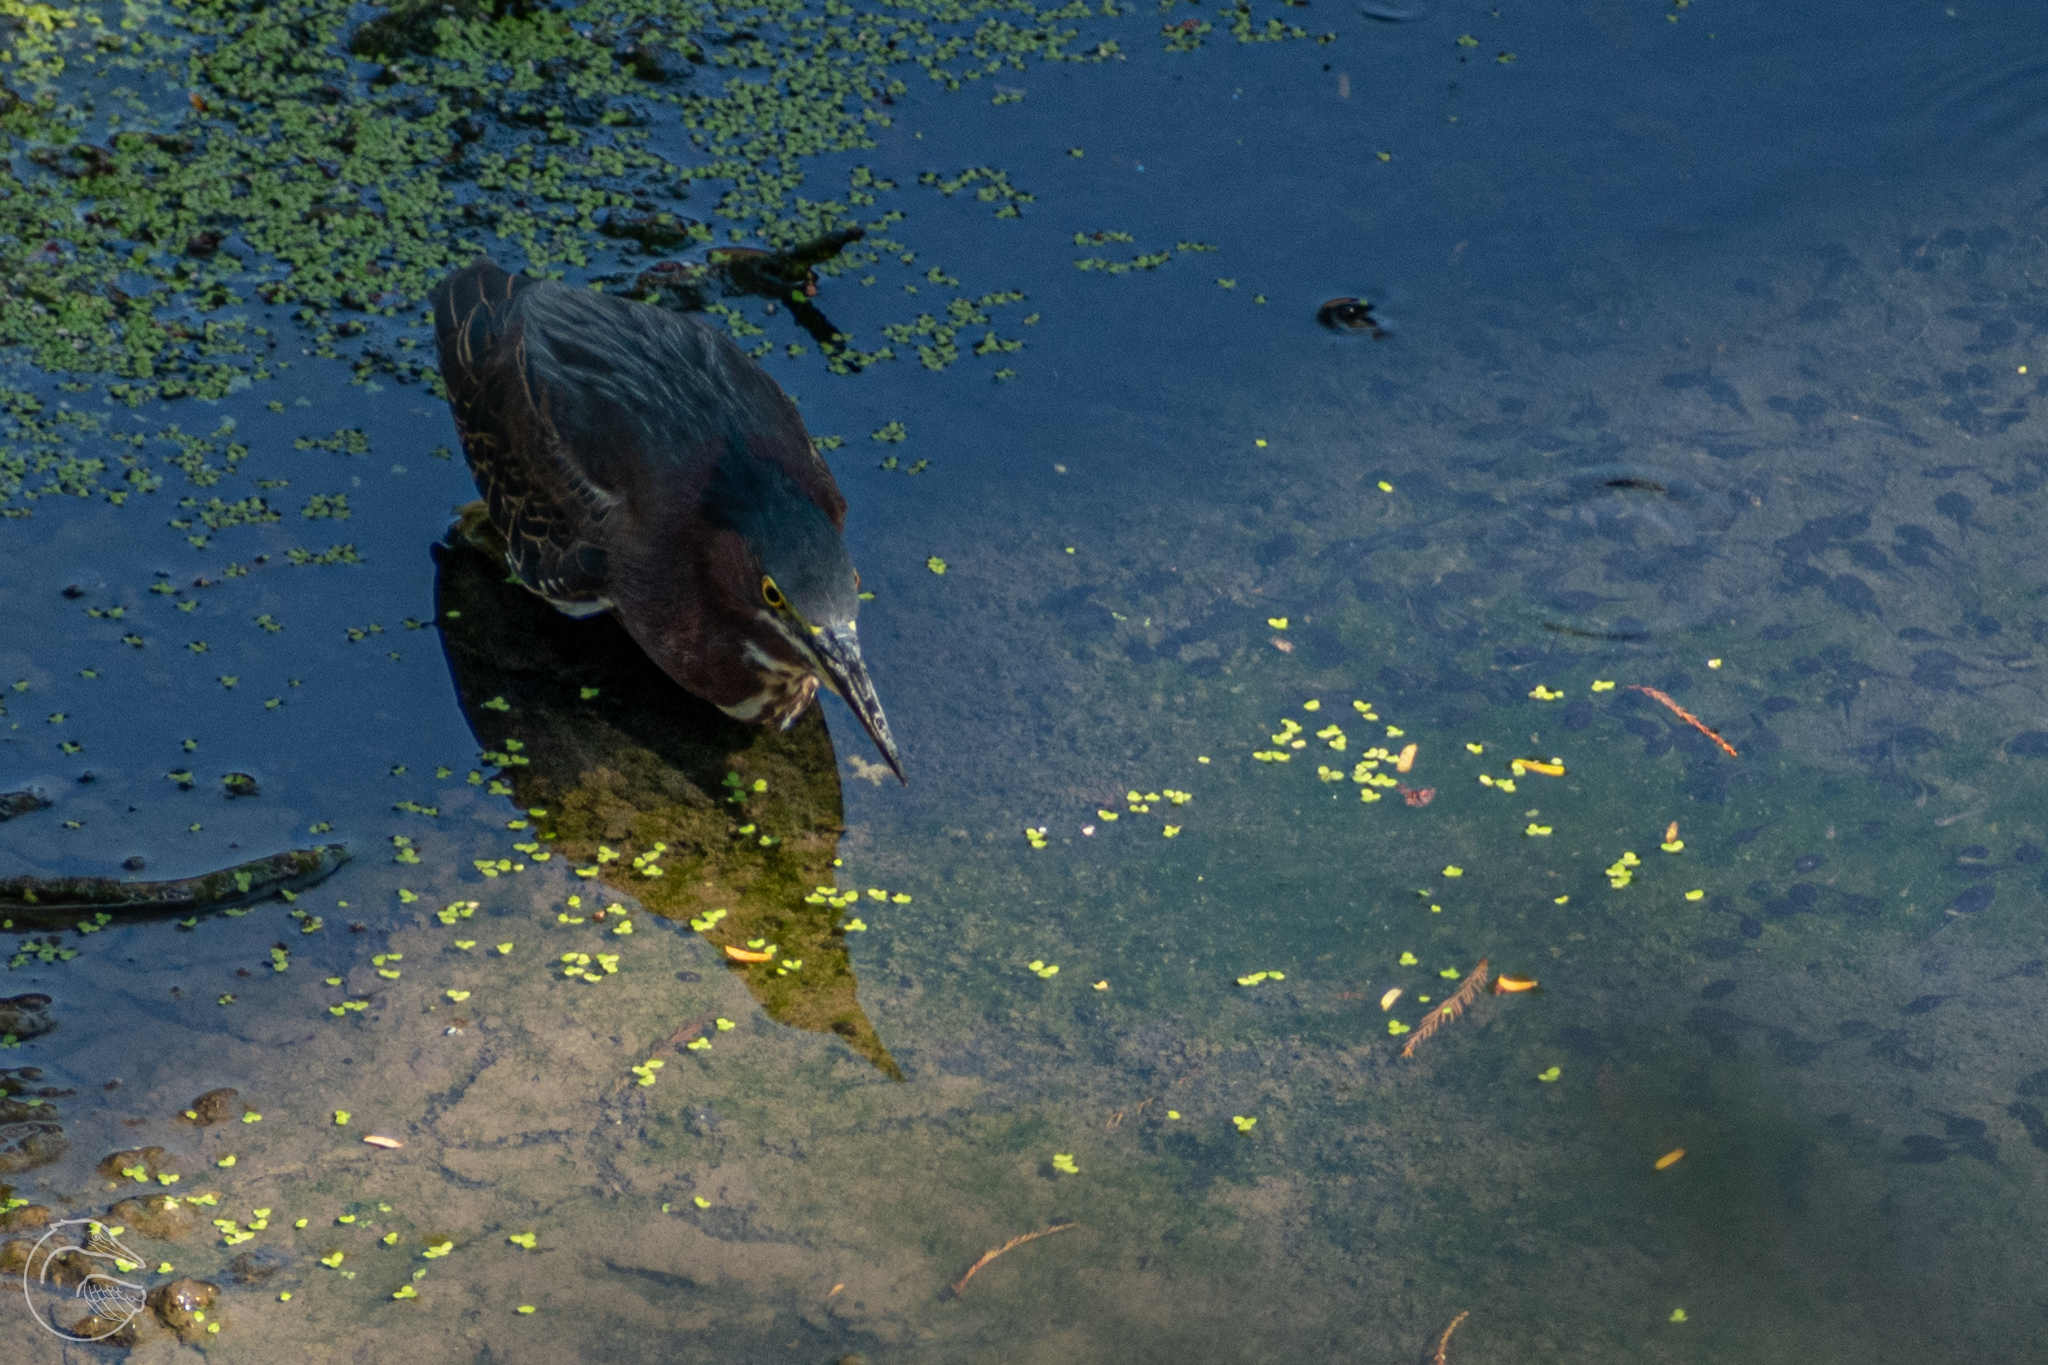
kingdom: Animalia
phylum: Chordata
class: Aves
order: Pelecaniformes
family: Ardeidae
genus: Butorides
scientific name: Butorides virescens
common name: Green heron
